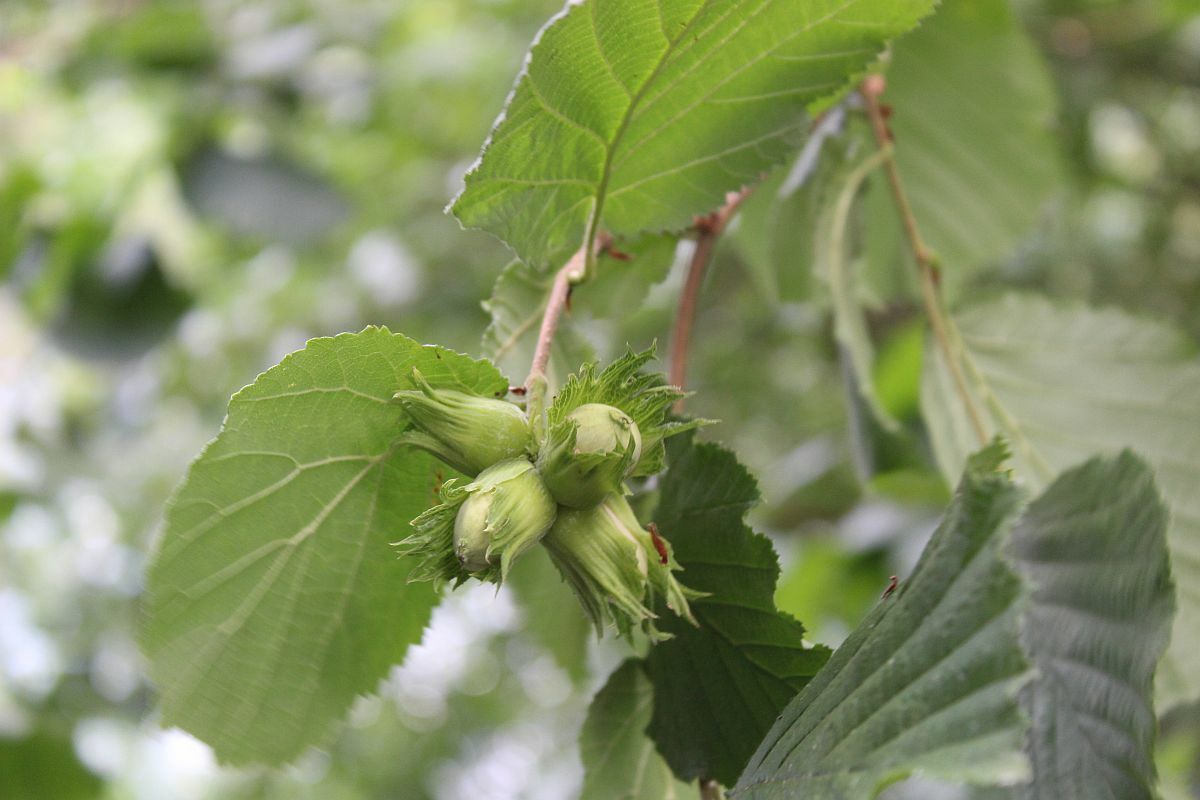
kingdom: Plantae
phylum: Tracheophyta
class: Magnoliopsida
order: Fagales
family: Betulaceae
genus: Corylus
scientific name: Corylus avellana
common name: European hazel
